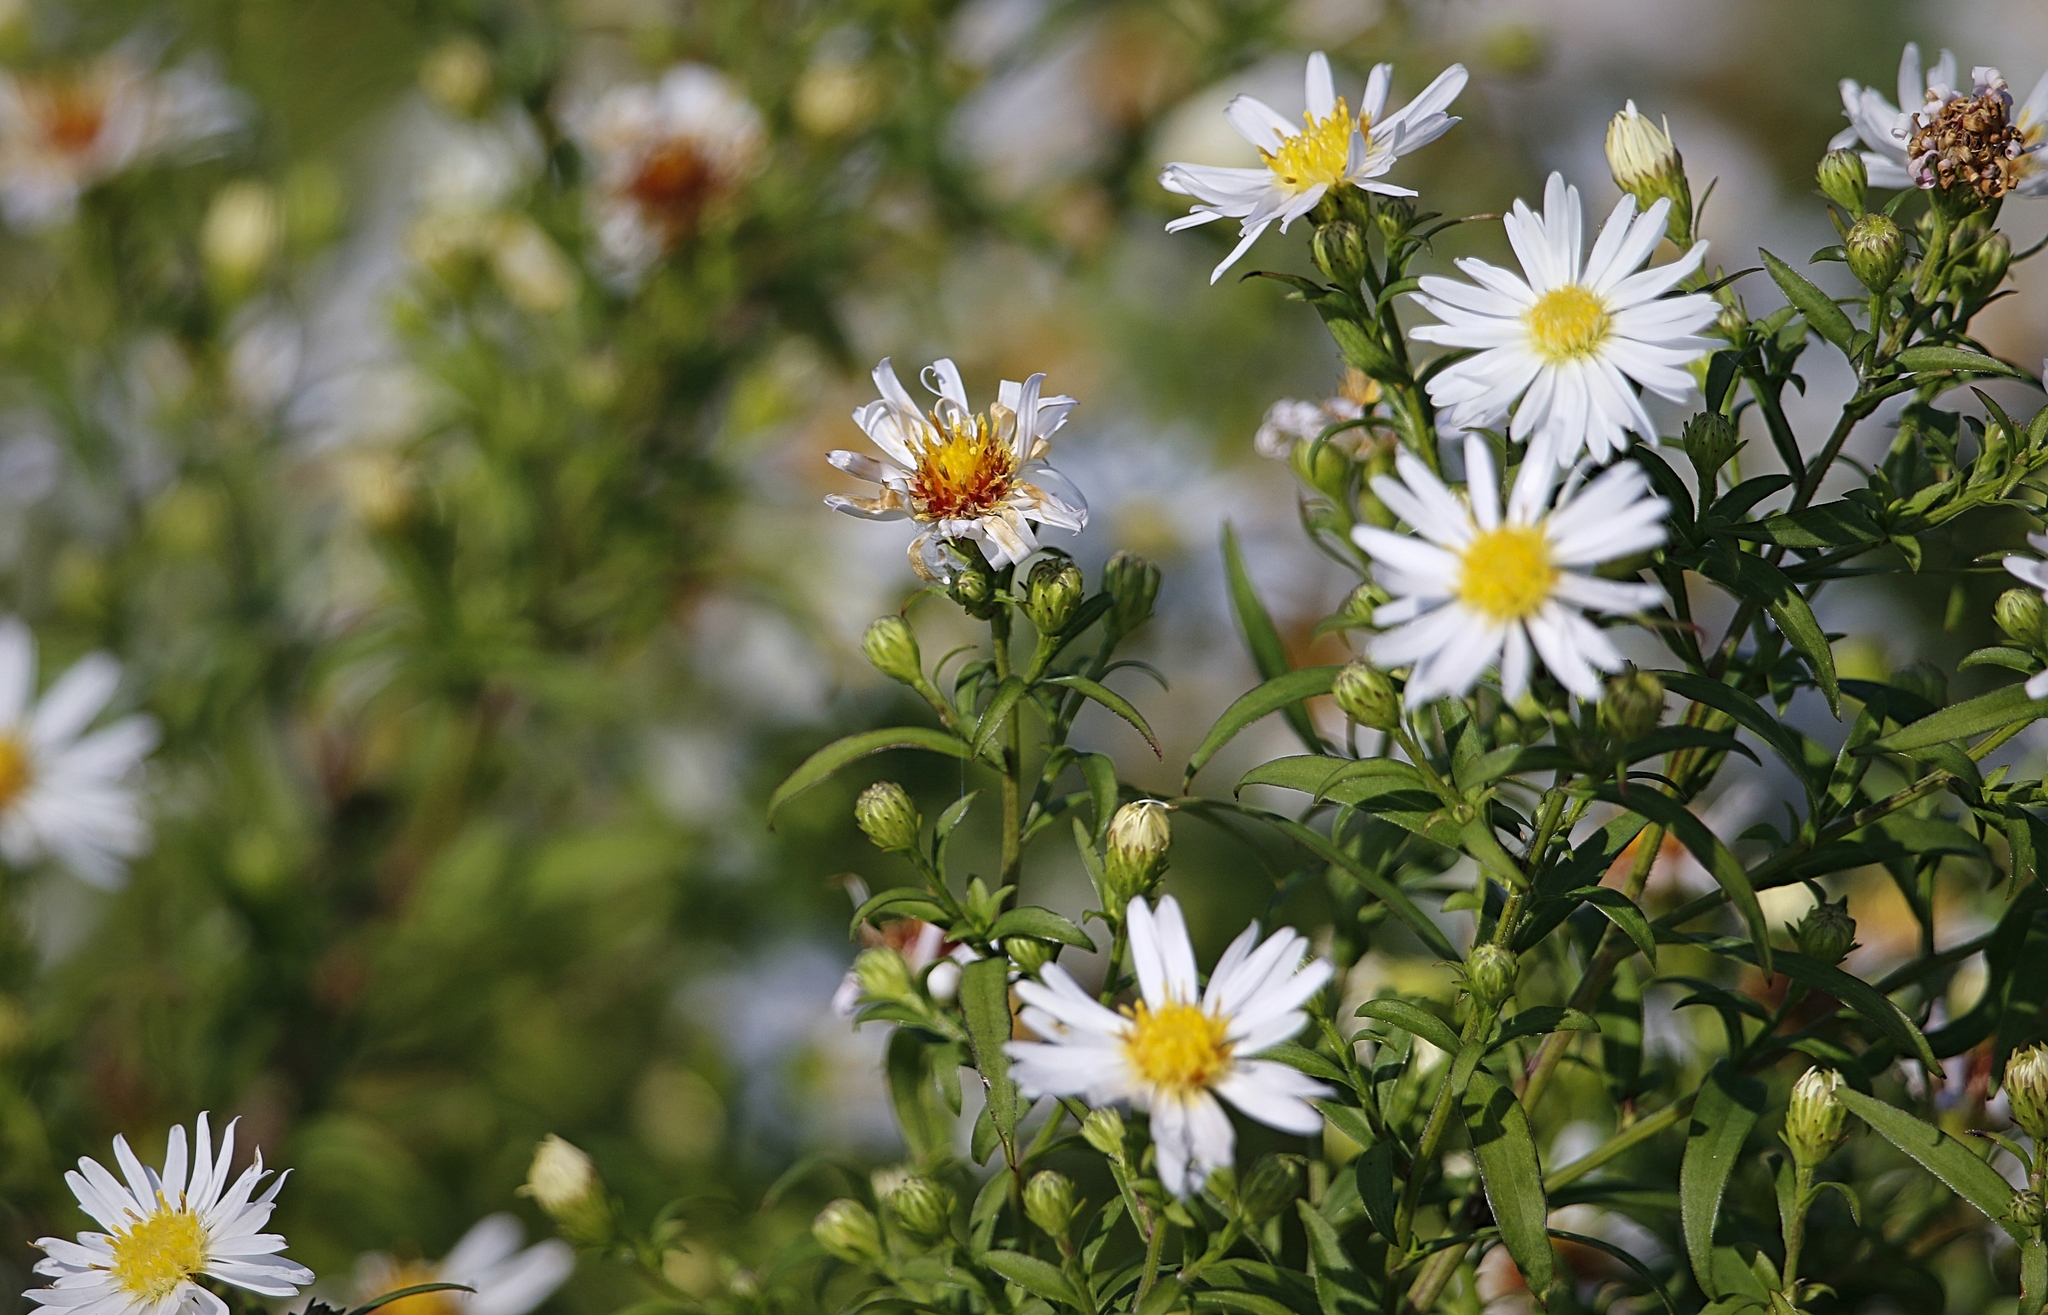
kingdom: Plantae
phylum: Tracheophyta
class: Magnoliopsida
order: Asterales
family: Asteraceae
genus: Symphyotrichum
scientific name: Symphyotrichum lanceolatum
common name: Panicled aster
